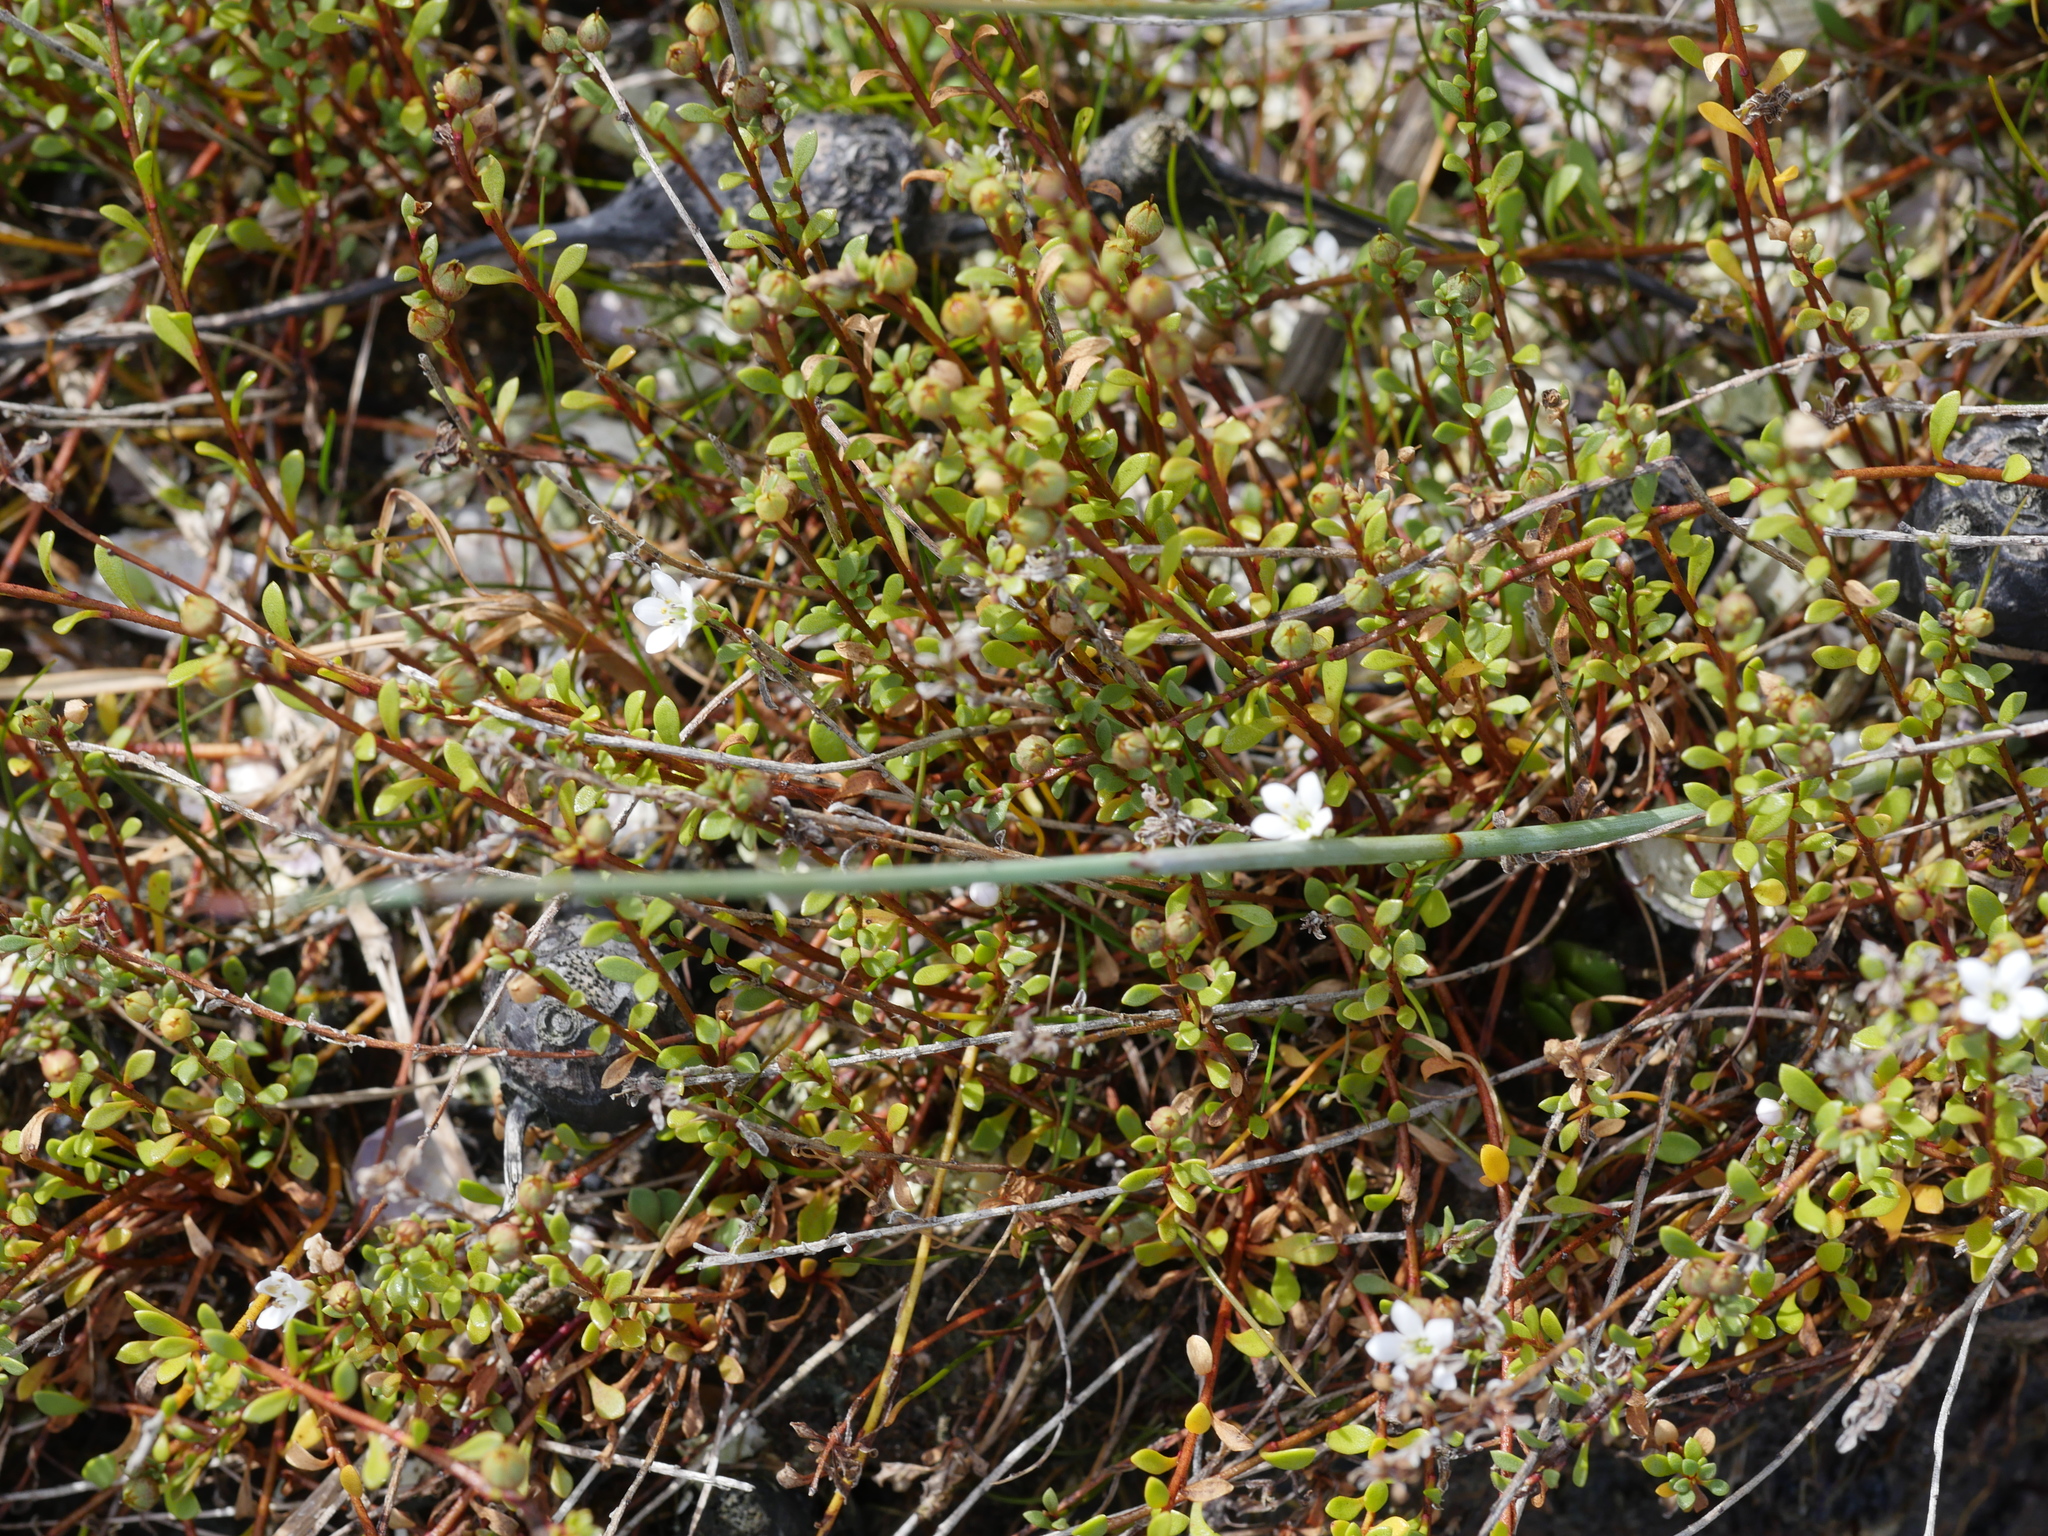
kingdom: Plantae
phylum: Tracheophyta
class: Magnoliopsida
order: Ericales
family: Primulaceae
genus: Samolus
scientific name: Samolus repens
